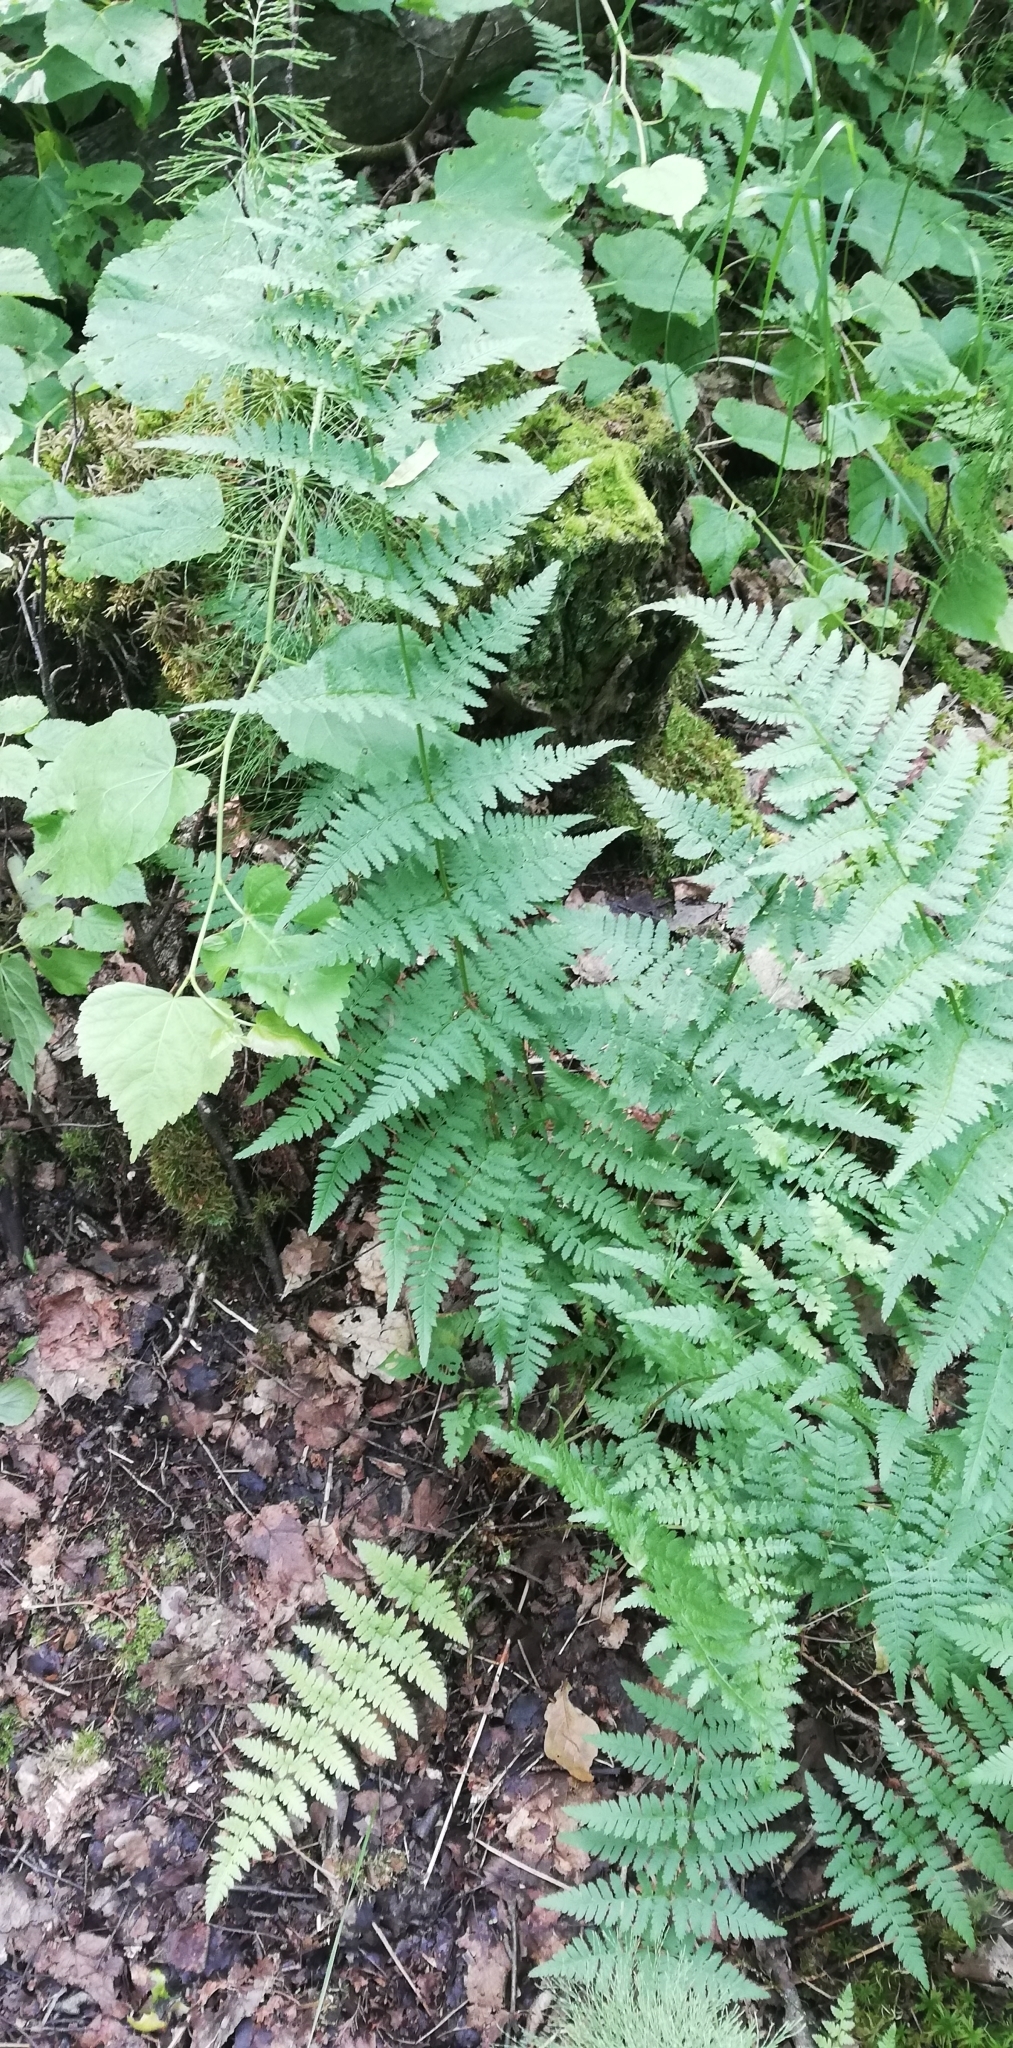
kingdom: Plantae
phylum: Tracheophyta
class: Polypodiopsida
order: Polypodiales
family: Dryopteridaceae
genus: Dryopteris
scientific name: Dryopteris carthusiana
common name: Narrow buckler-fern
